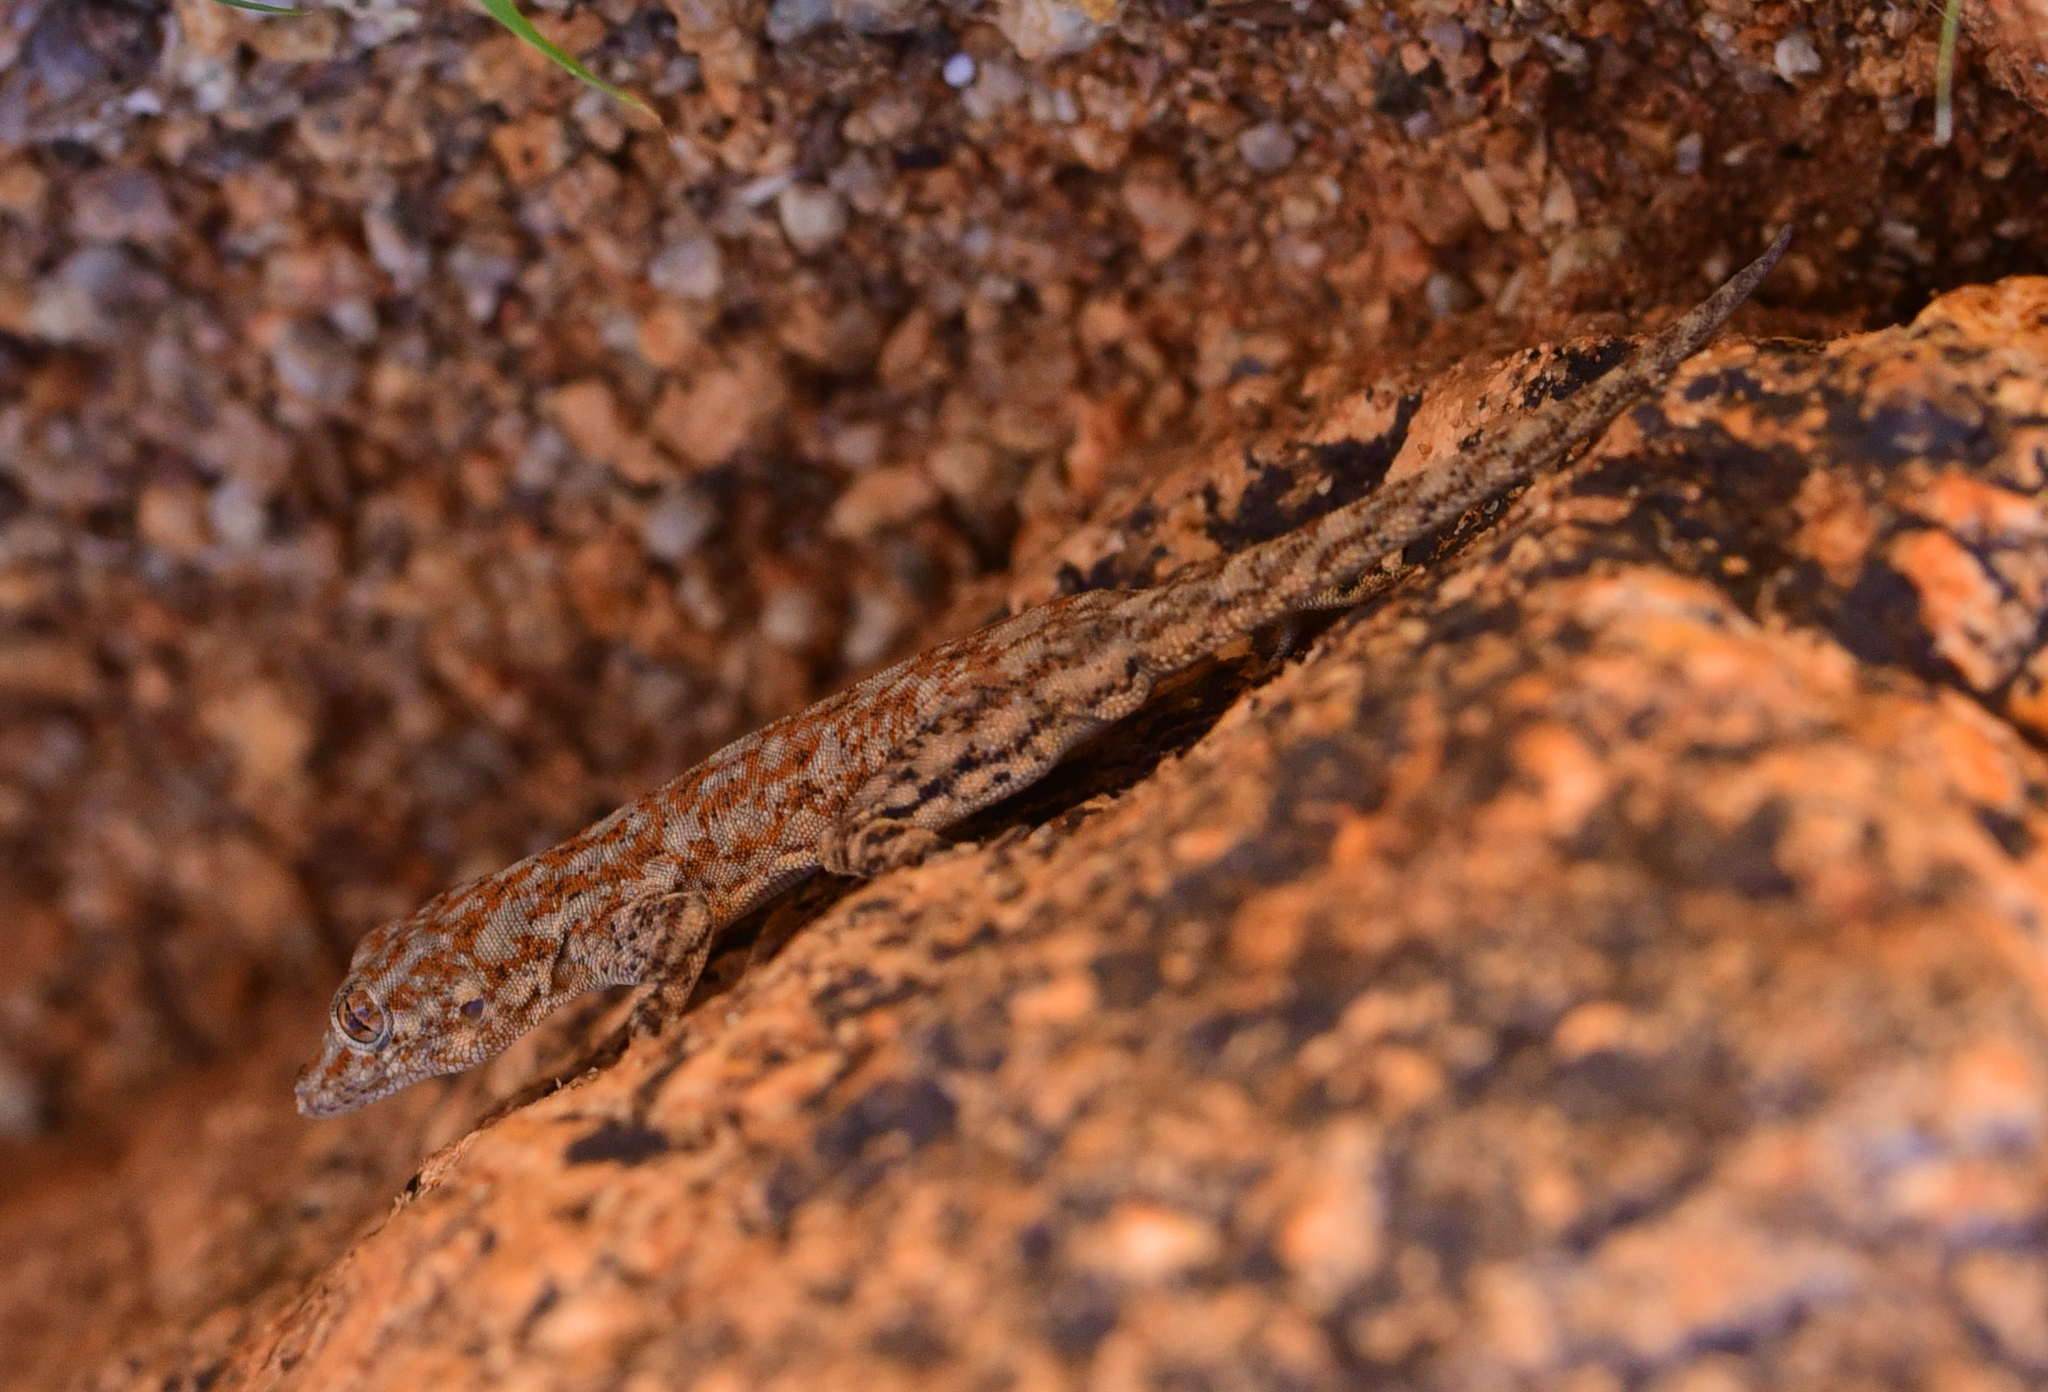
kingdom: Animalia
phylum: Chordata
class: Squamata
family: Gekkonidae
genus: Rhoptropus
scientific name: Rhoptropus barnardi
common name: Barnard’s namib day gecko
